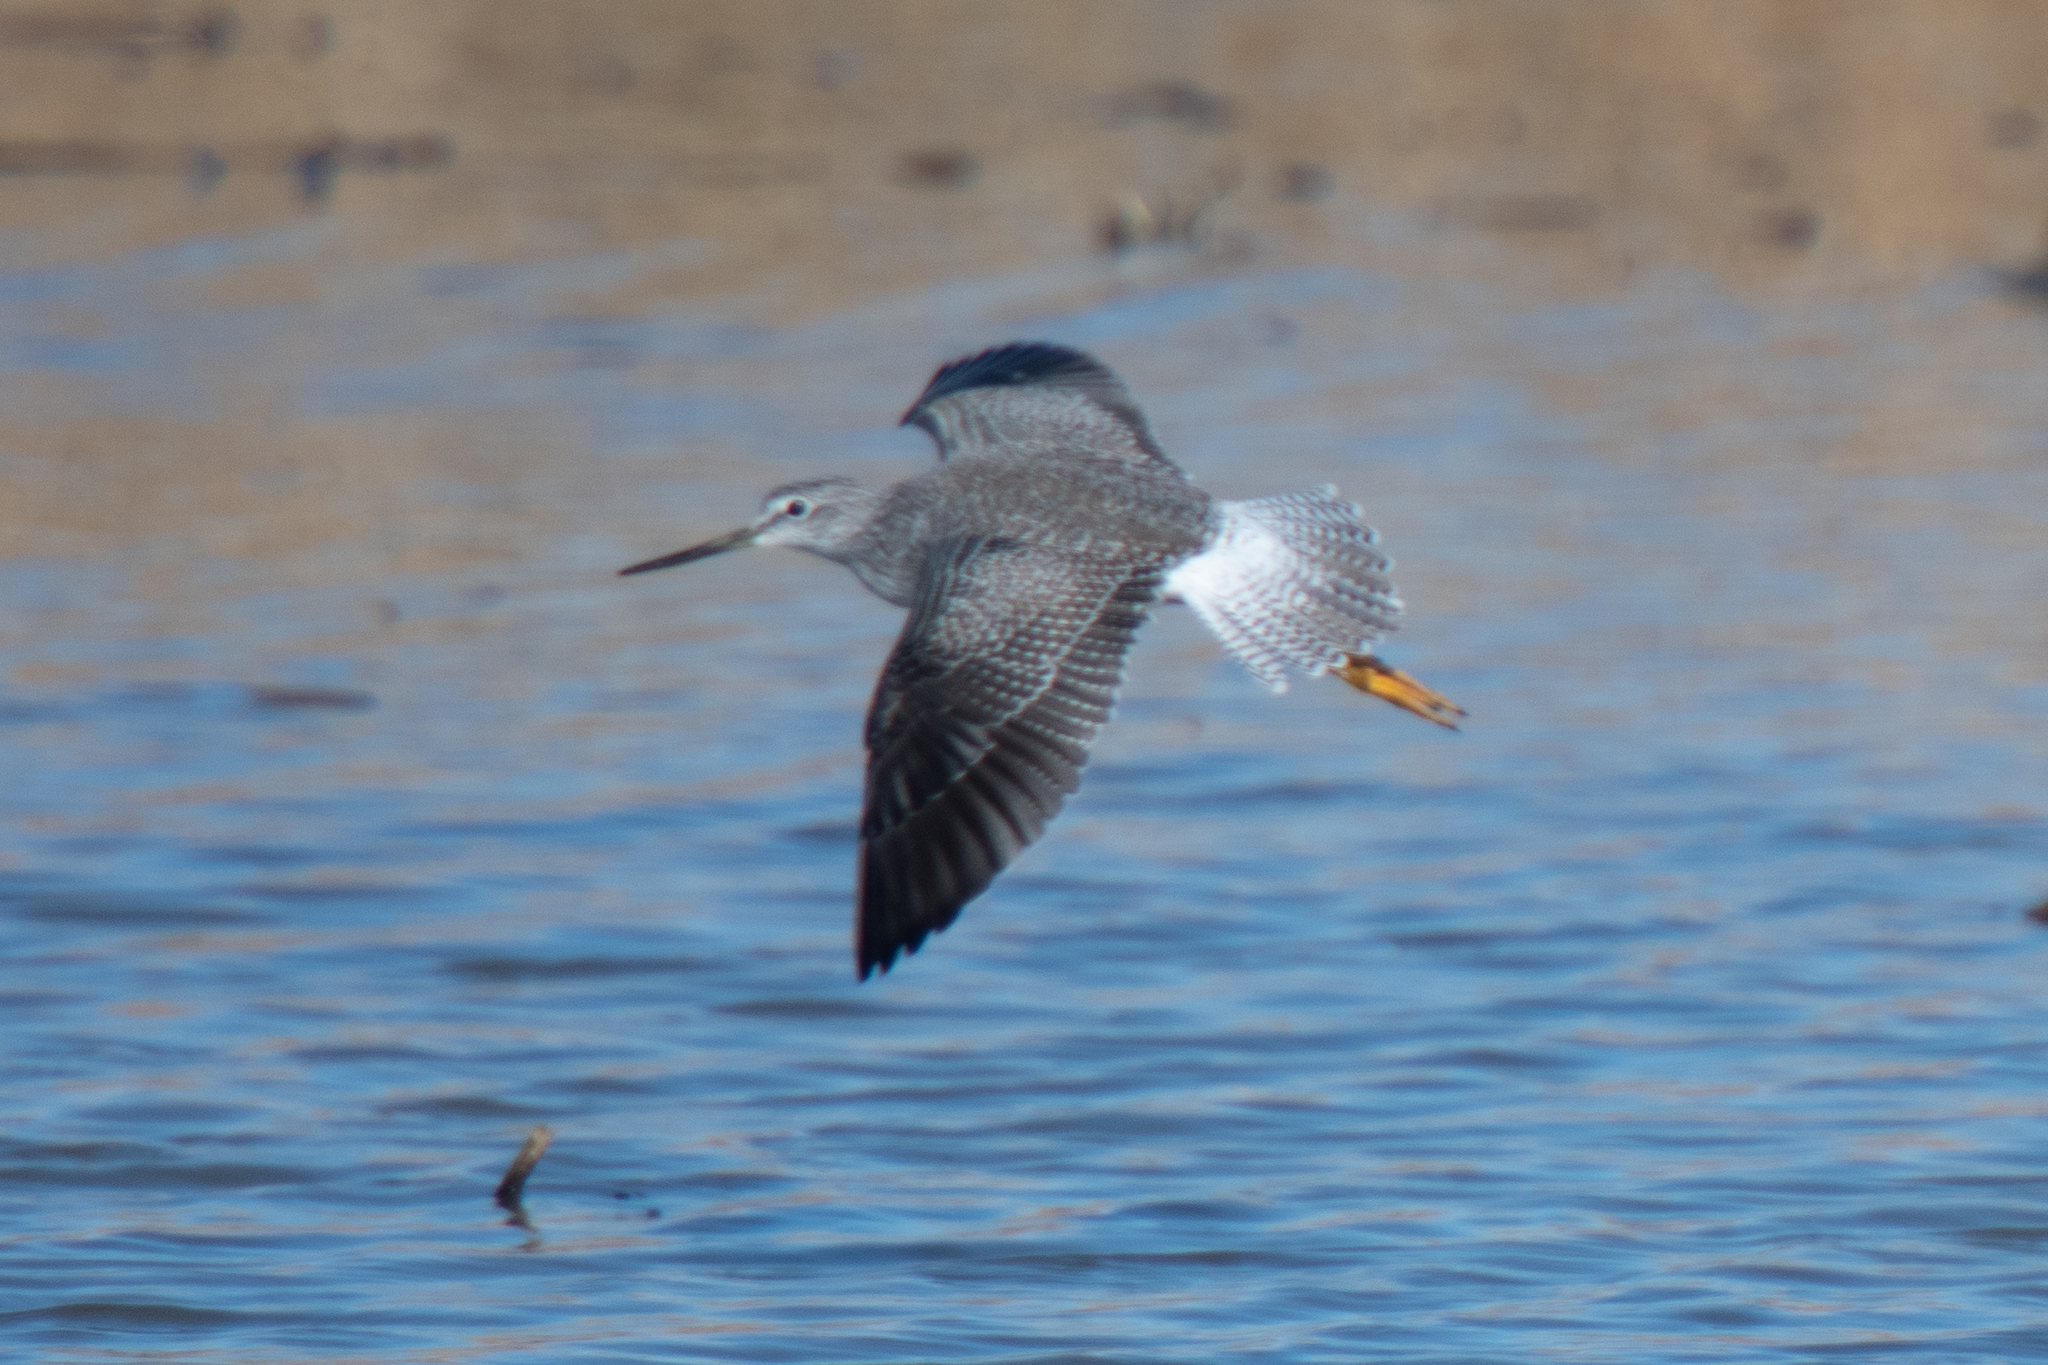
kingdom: Animalia
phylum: Chordata
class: Aves
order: Charadriiformes
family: Scolopacidae
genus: Tringa
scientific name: Tringa melanoleuca
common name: Greater yellowlegs
